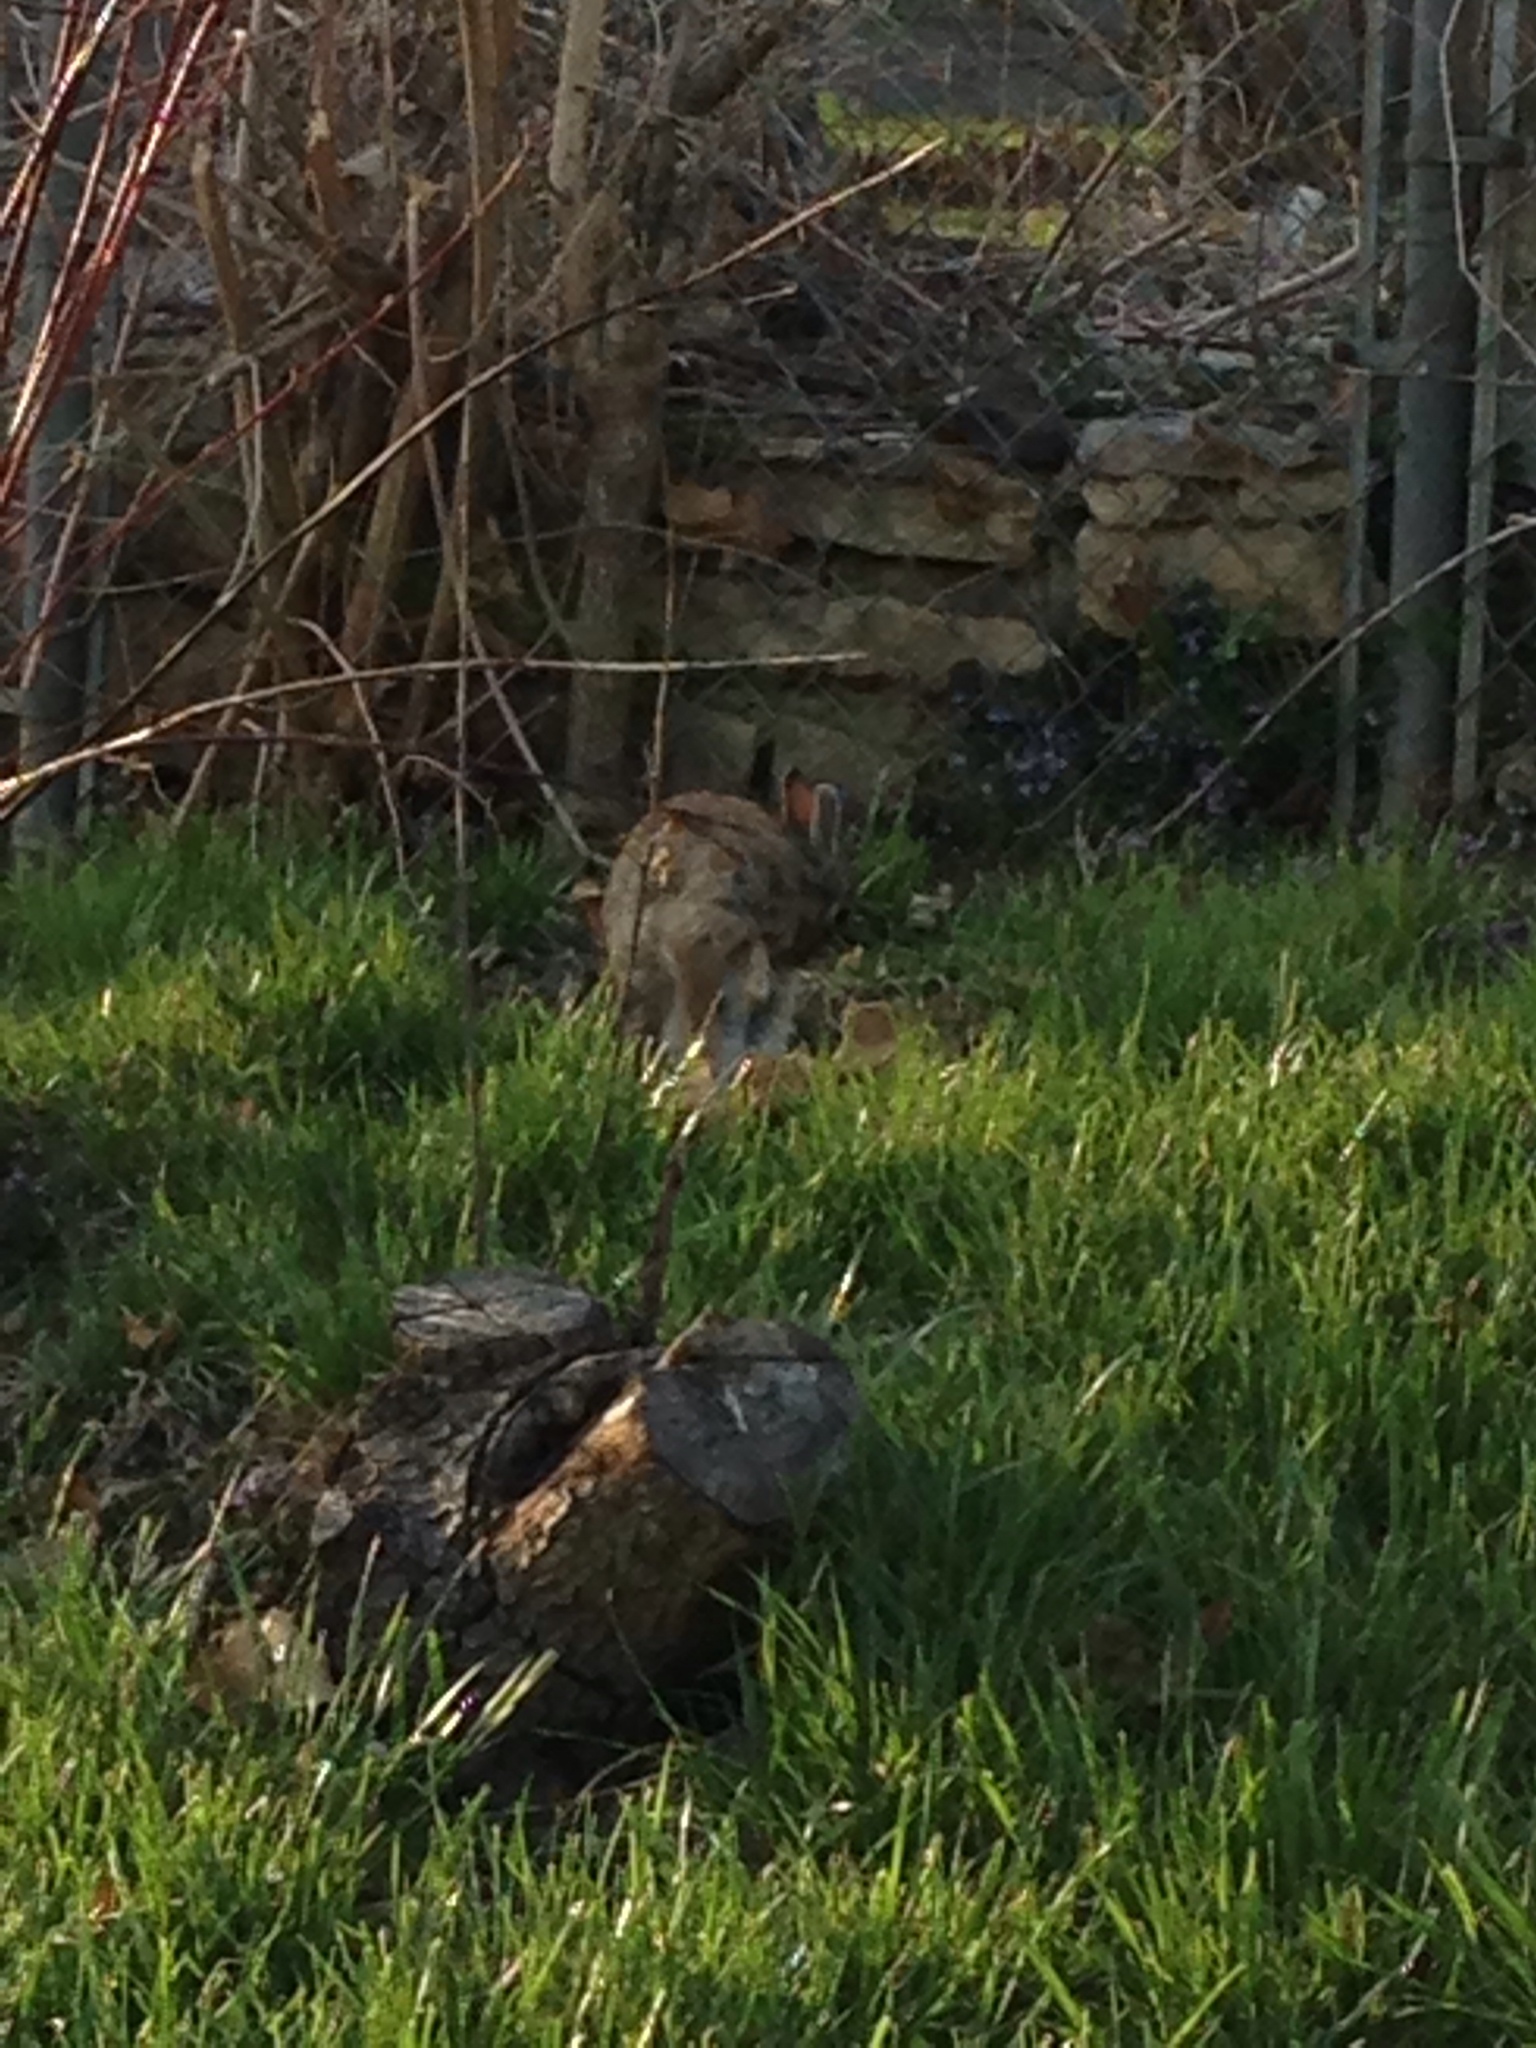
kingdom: Animalia
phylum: Chordata
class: Mammalia
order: Lagomorpha
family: Leporidae
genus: Sylvilagus
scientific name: Sylvilagus floridanus
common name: Eastern cottontail
